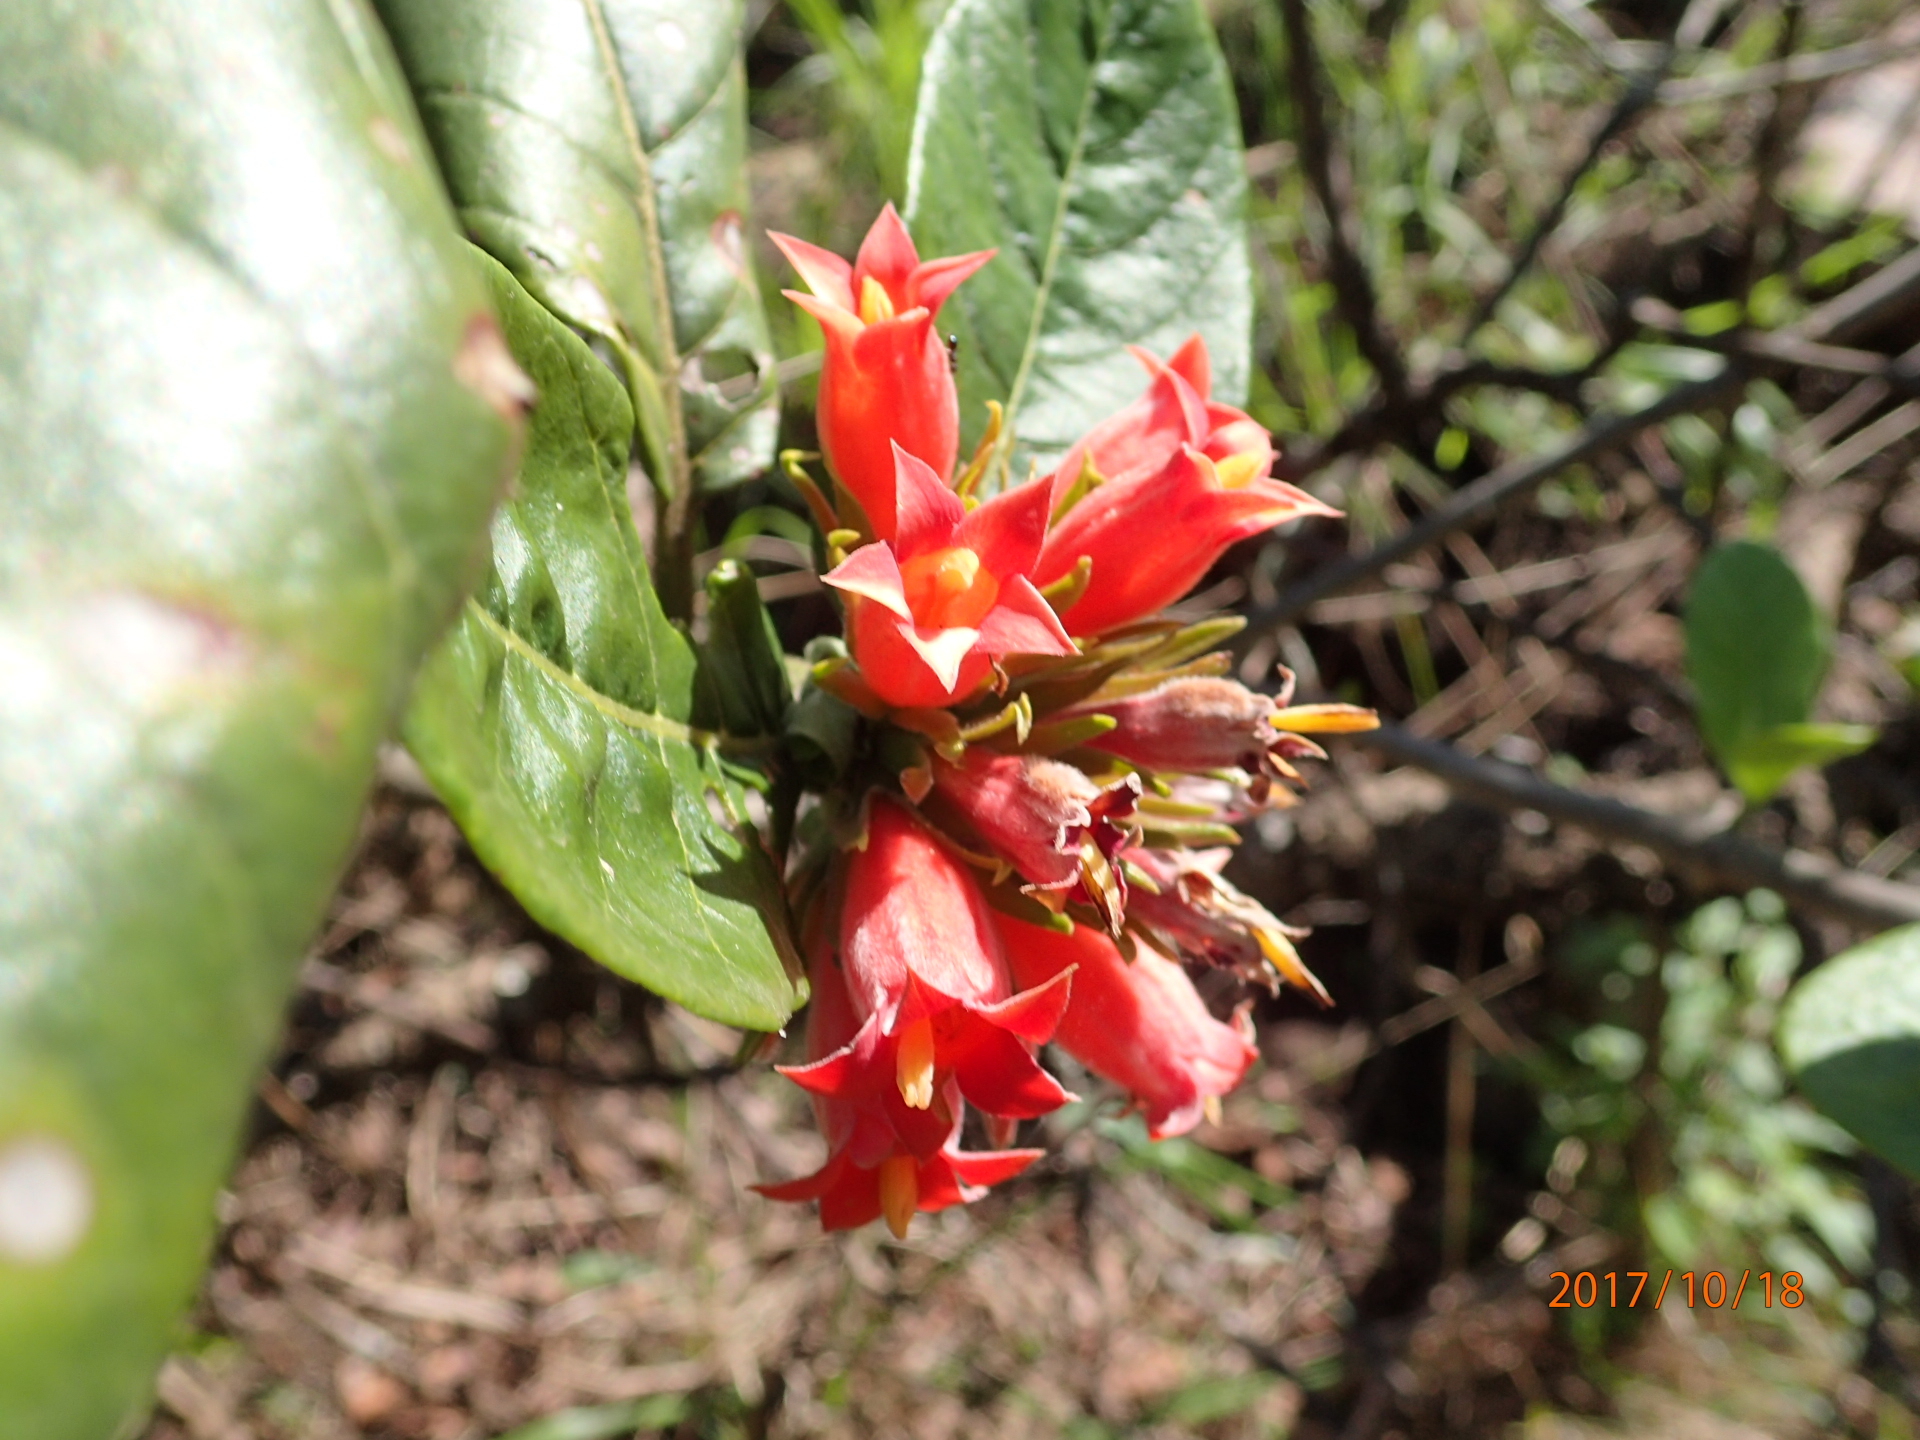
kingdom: Plantae
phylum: Tracheophyta
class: Magnoliopsida
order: Gentianales
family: Rubiaceae
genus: Burchellia
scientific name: Burchellia bubalina
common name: Wild pomegranate
